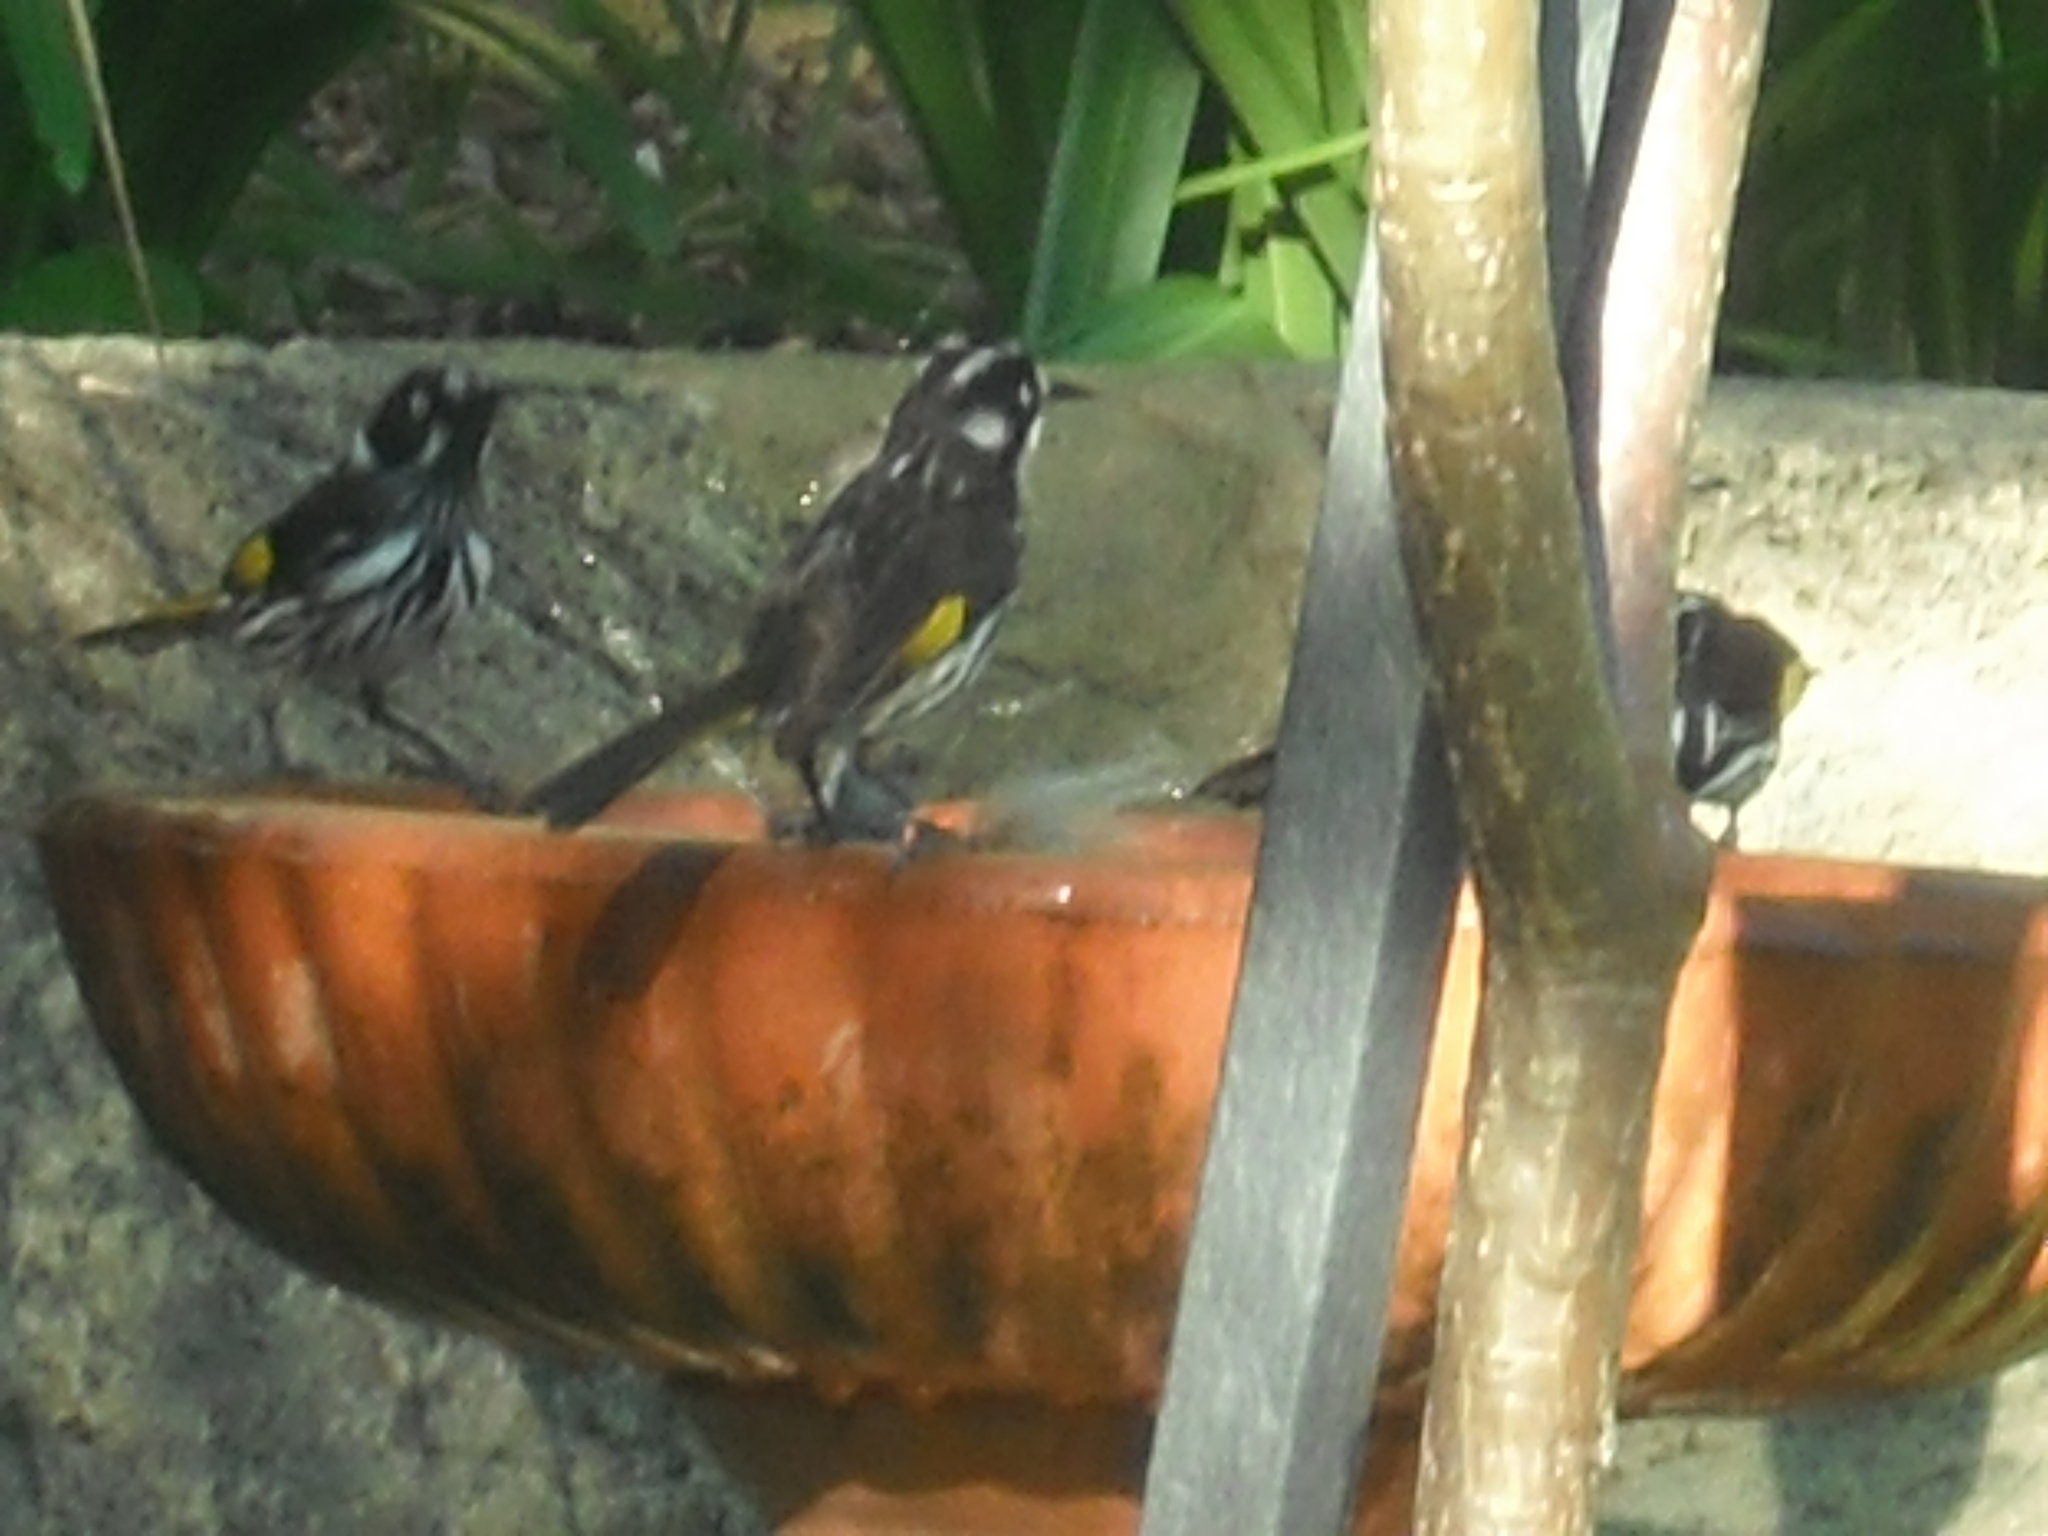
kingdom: Animalia
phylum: Chordata
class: Aves
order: Passeriformes
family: Meliphagidae
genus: Phylidonyris
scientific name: Phylidonyris novaehollandiae
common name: New holland honeyeater
